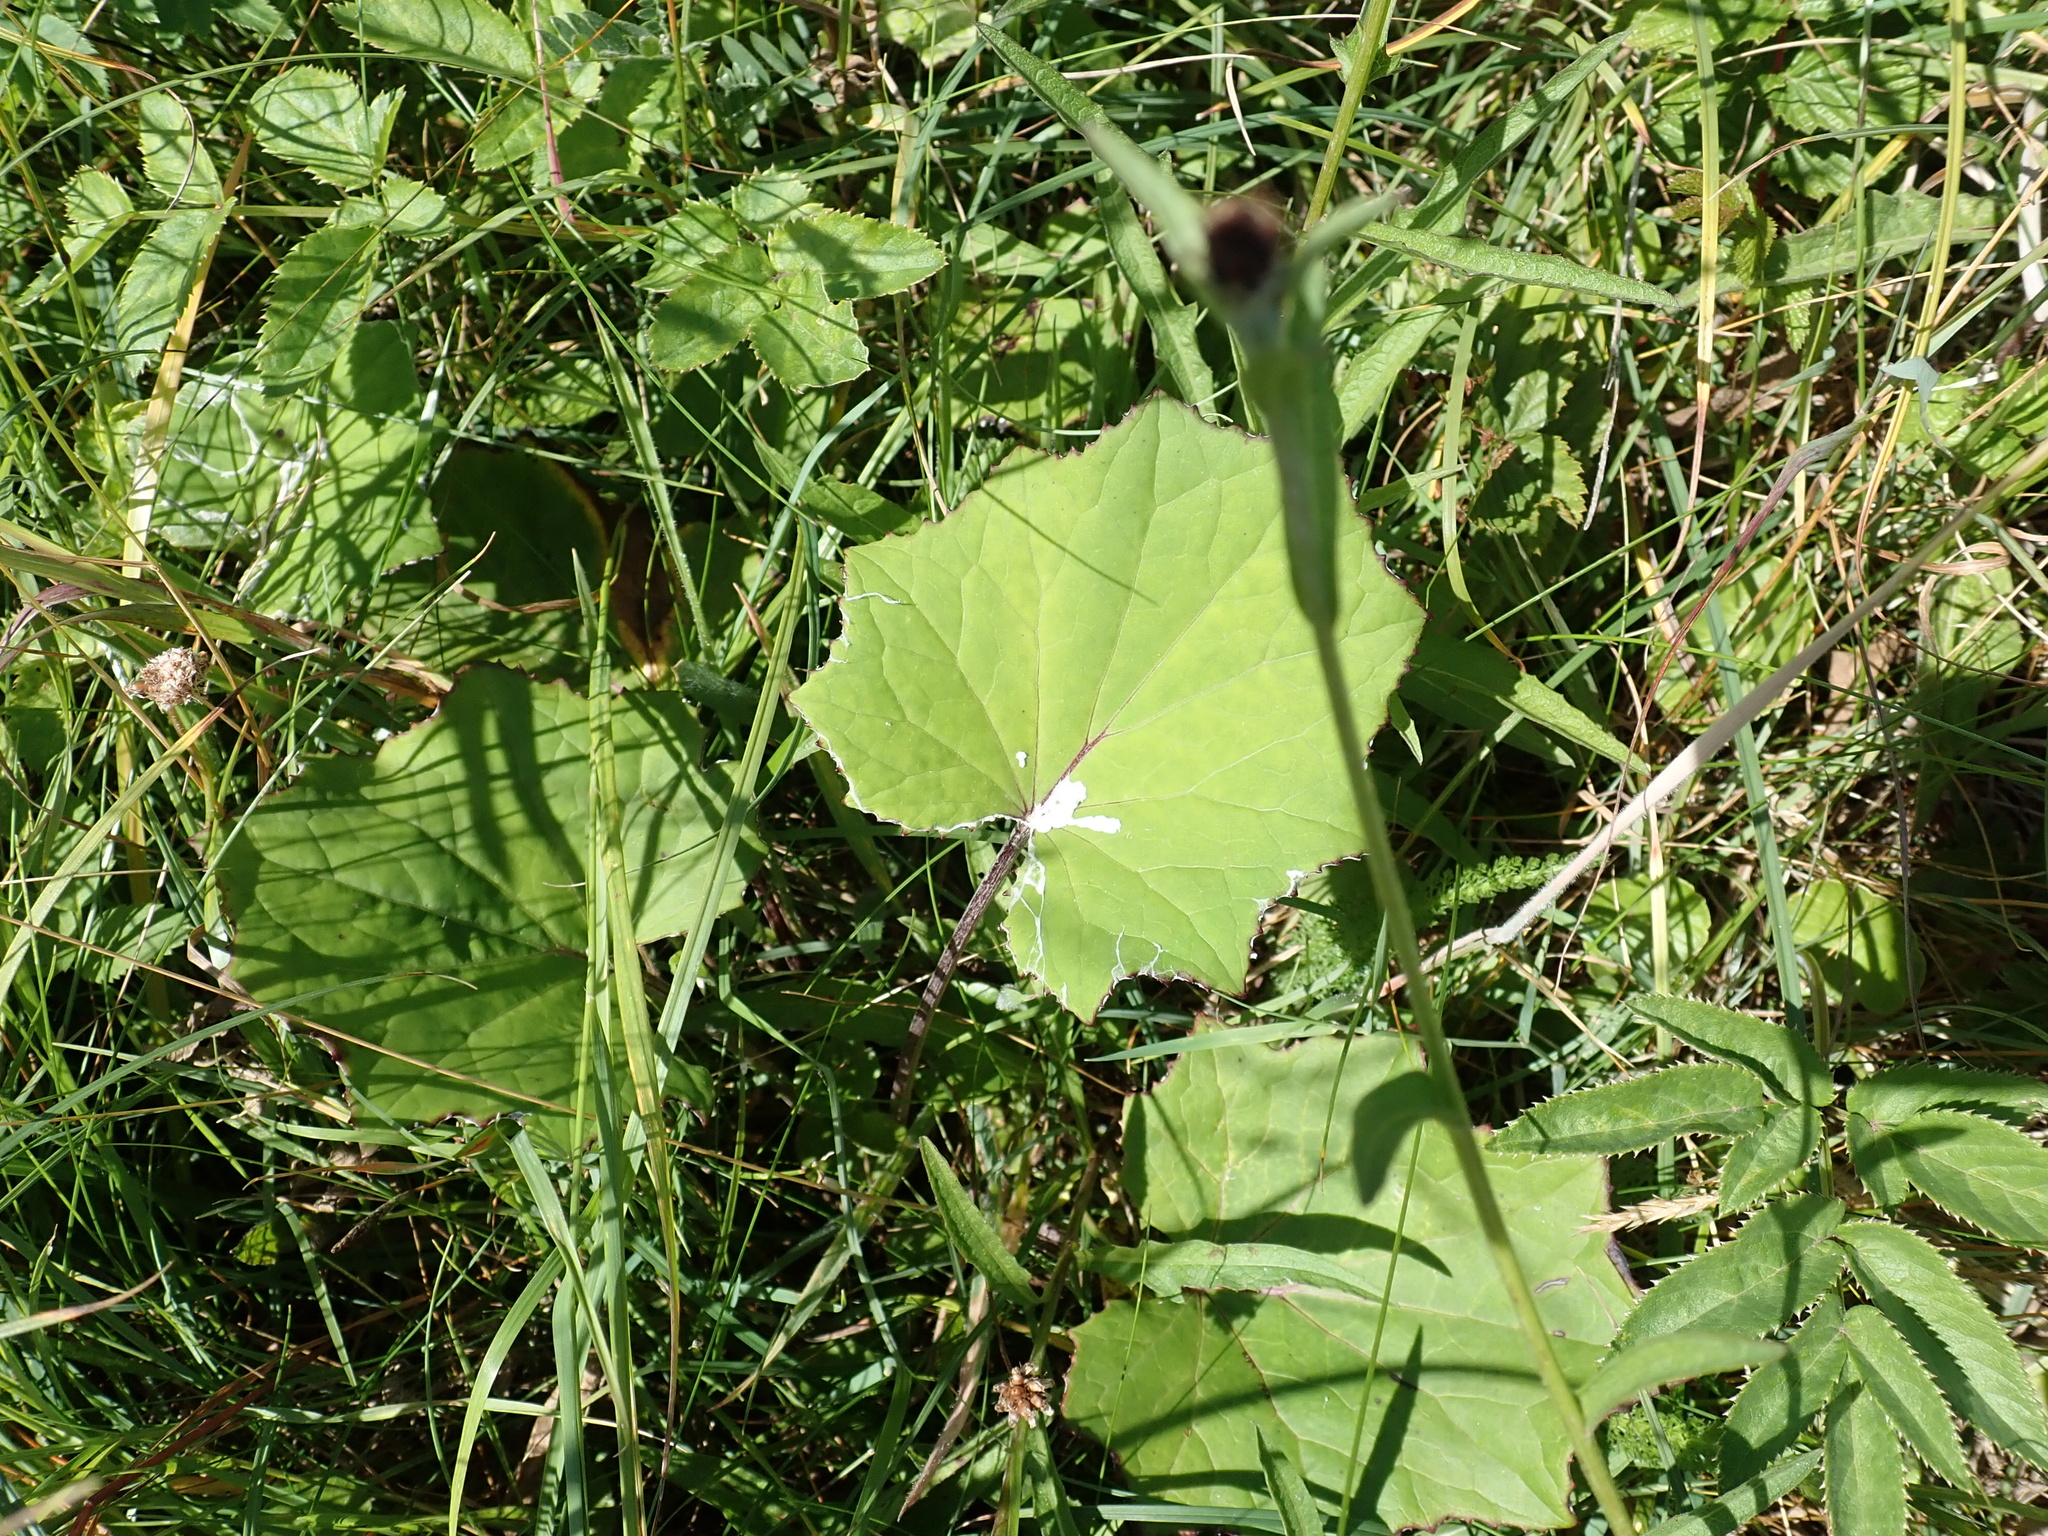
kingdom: Plantae
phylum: Tracheophyta
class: Magnoliopsida
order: Asterales
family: Asteraceae
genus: Tussilago
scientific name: Tussilago farfara
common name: Coltsfoot
